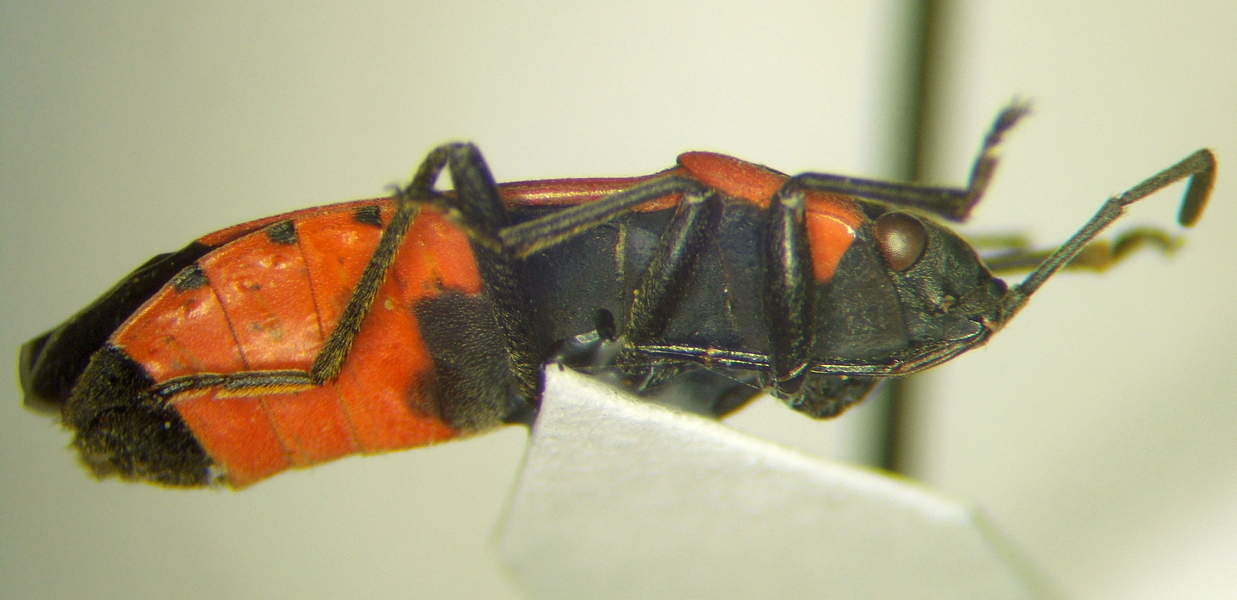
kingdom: Animalia
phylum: Arthropoda
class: Insecta
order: Hemiptera
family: Lygaeidae
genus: Melanocoryphus
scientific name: Melanocoryphus albomaculatus
